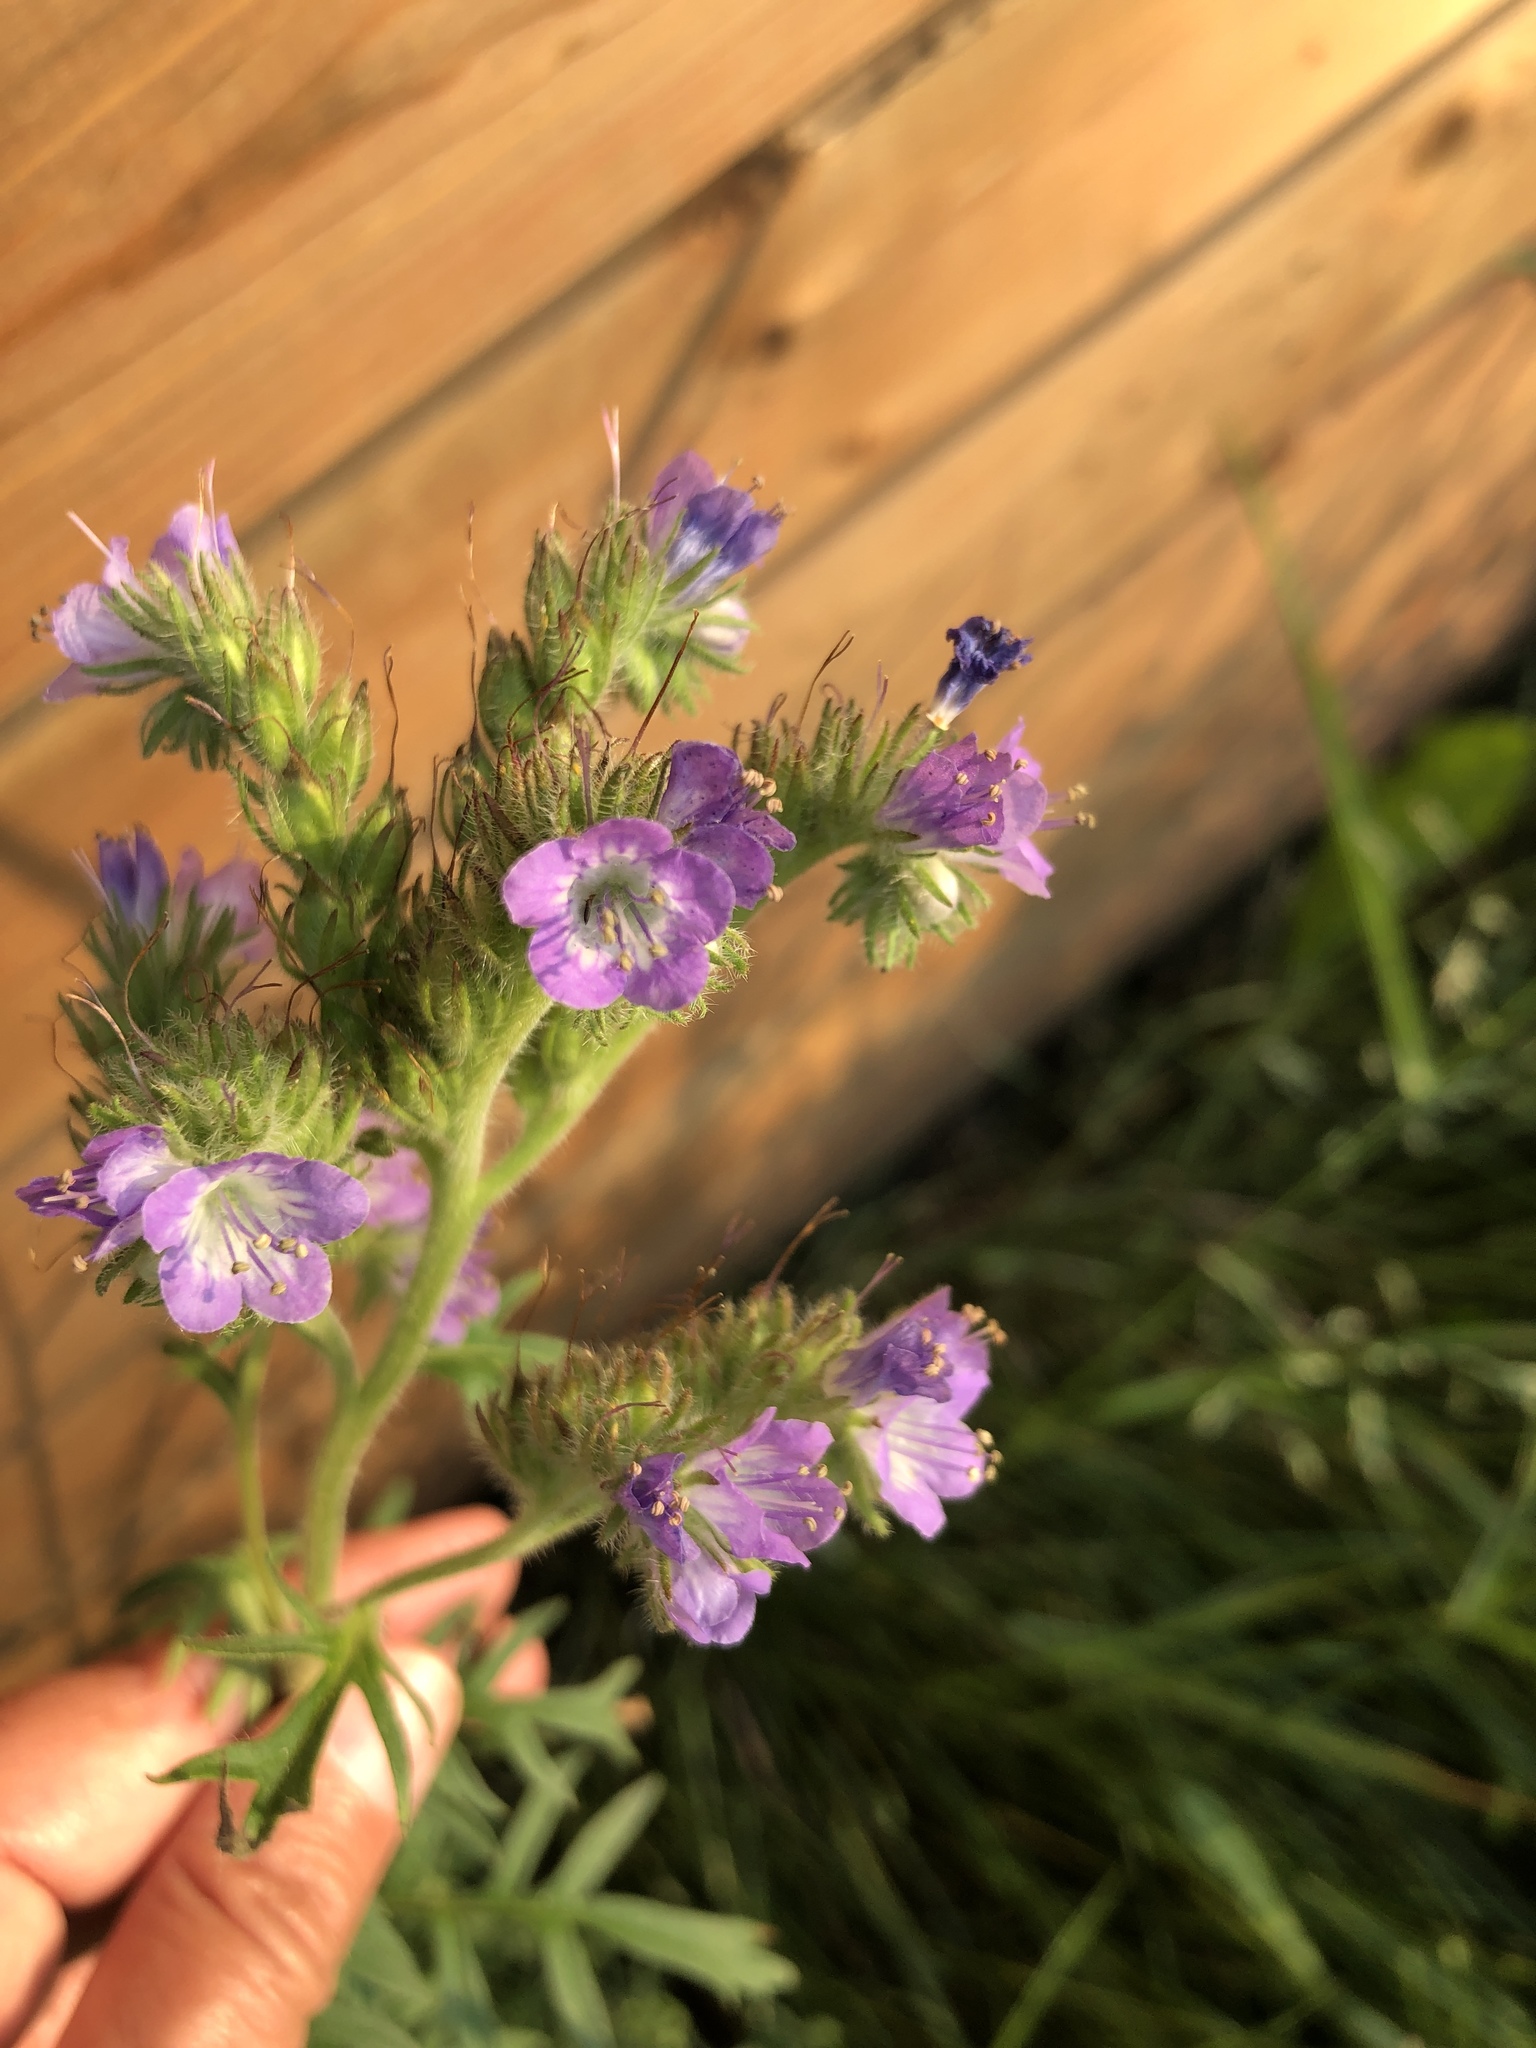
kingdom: Plantae
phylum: Tracheophyta
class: Magnoliopsida
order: Boraginales
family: Hydrophyllaceae
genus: Phacelia
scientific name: Phacelia franklinii
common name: Franklin's phacelia
